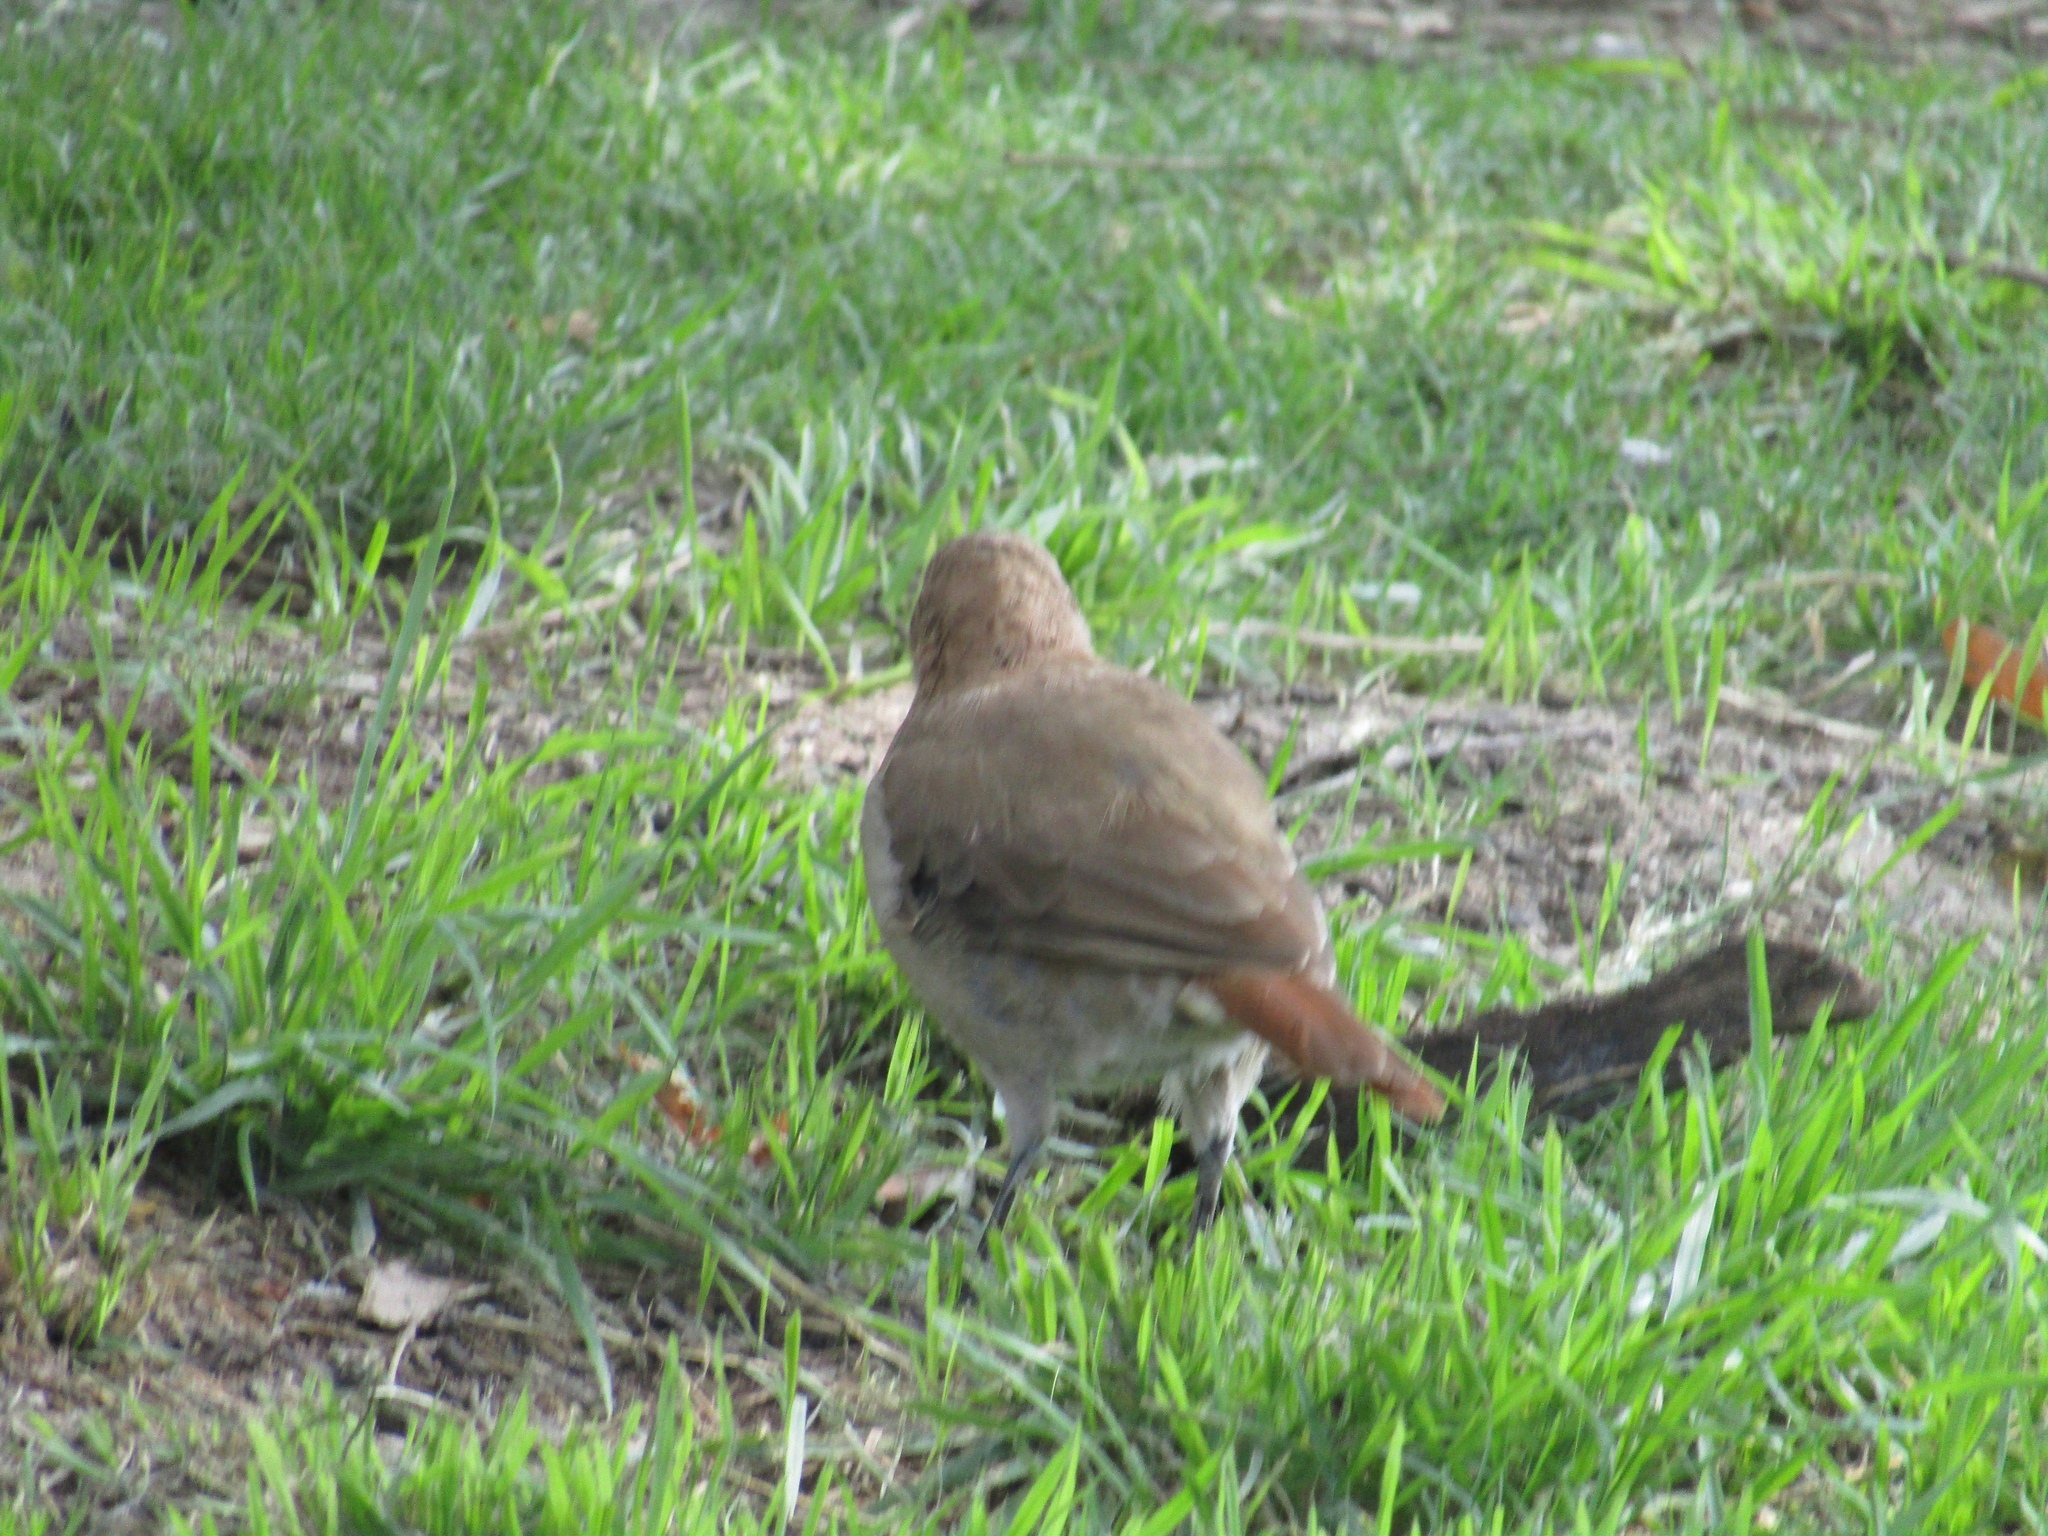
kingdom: Animalia
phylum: Chordata
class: Aves
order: Passeriformes
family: Furnariidae
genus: Furnarius
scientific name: Furnarius rufus
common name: Rufous hornero
